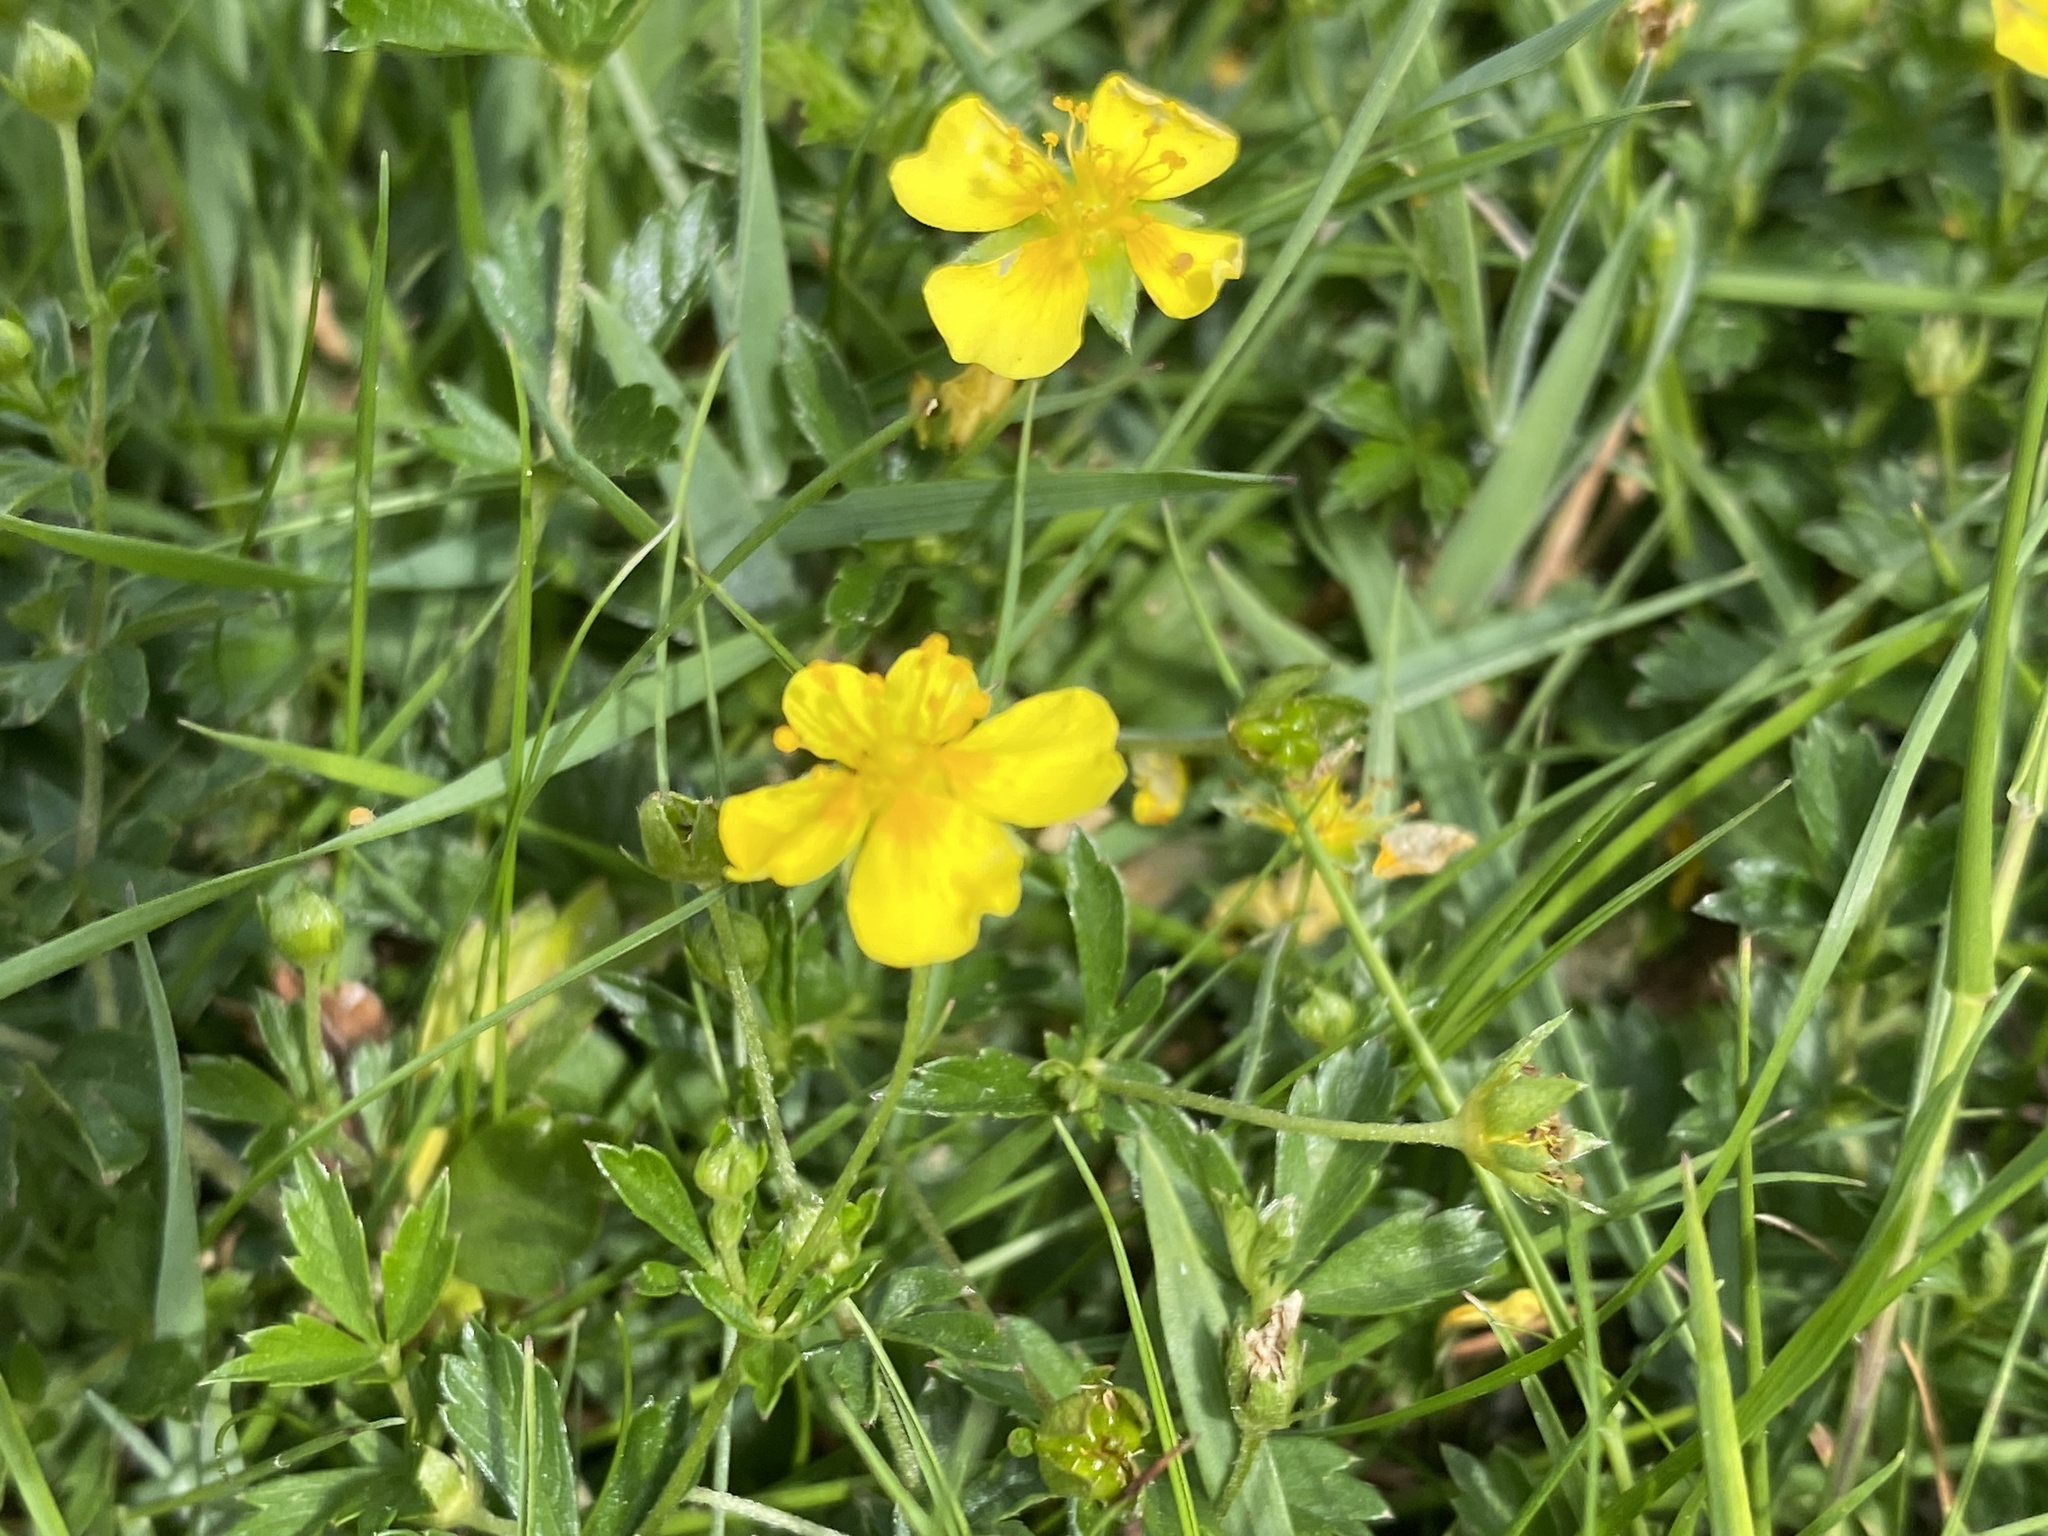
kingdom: Plantae
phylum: Tracheophyta
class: Magnoliopsida
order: Rosales
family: Rosaceae
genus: Potentilla
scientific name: Potentilla erecta
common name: Tormentil
